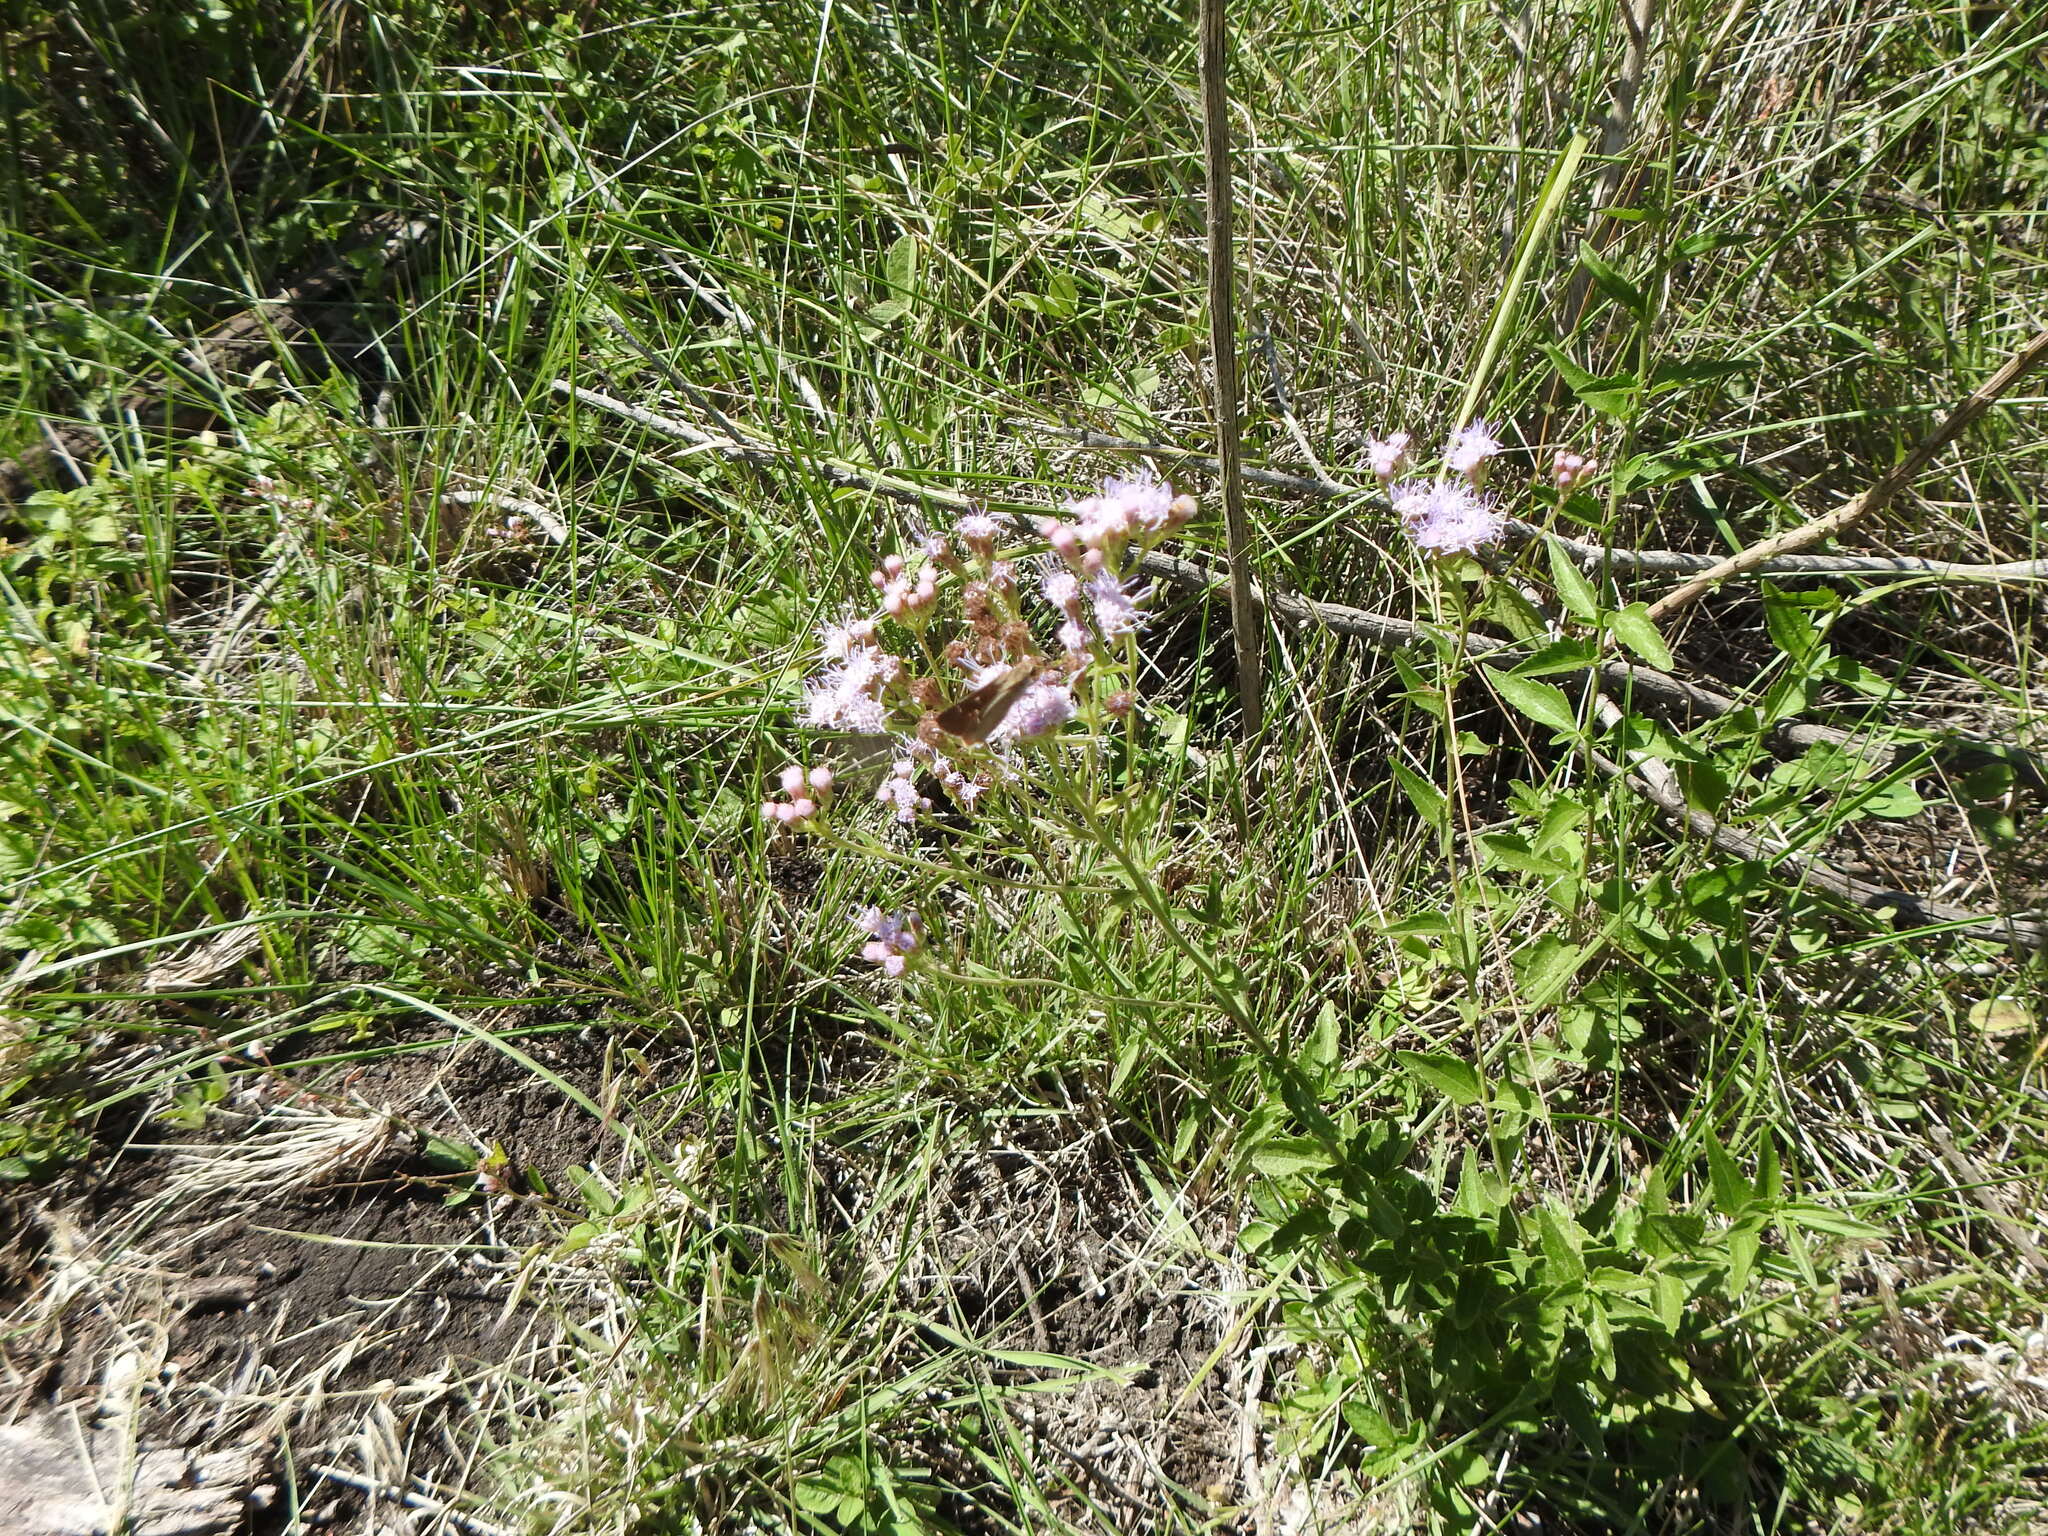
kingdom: Plantae
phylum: Tracheophyta
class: Magnoliopsida
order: Asterales
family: Asteraceae
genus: Chromolaena
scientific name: Chromolaena hirsuta
